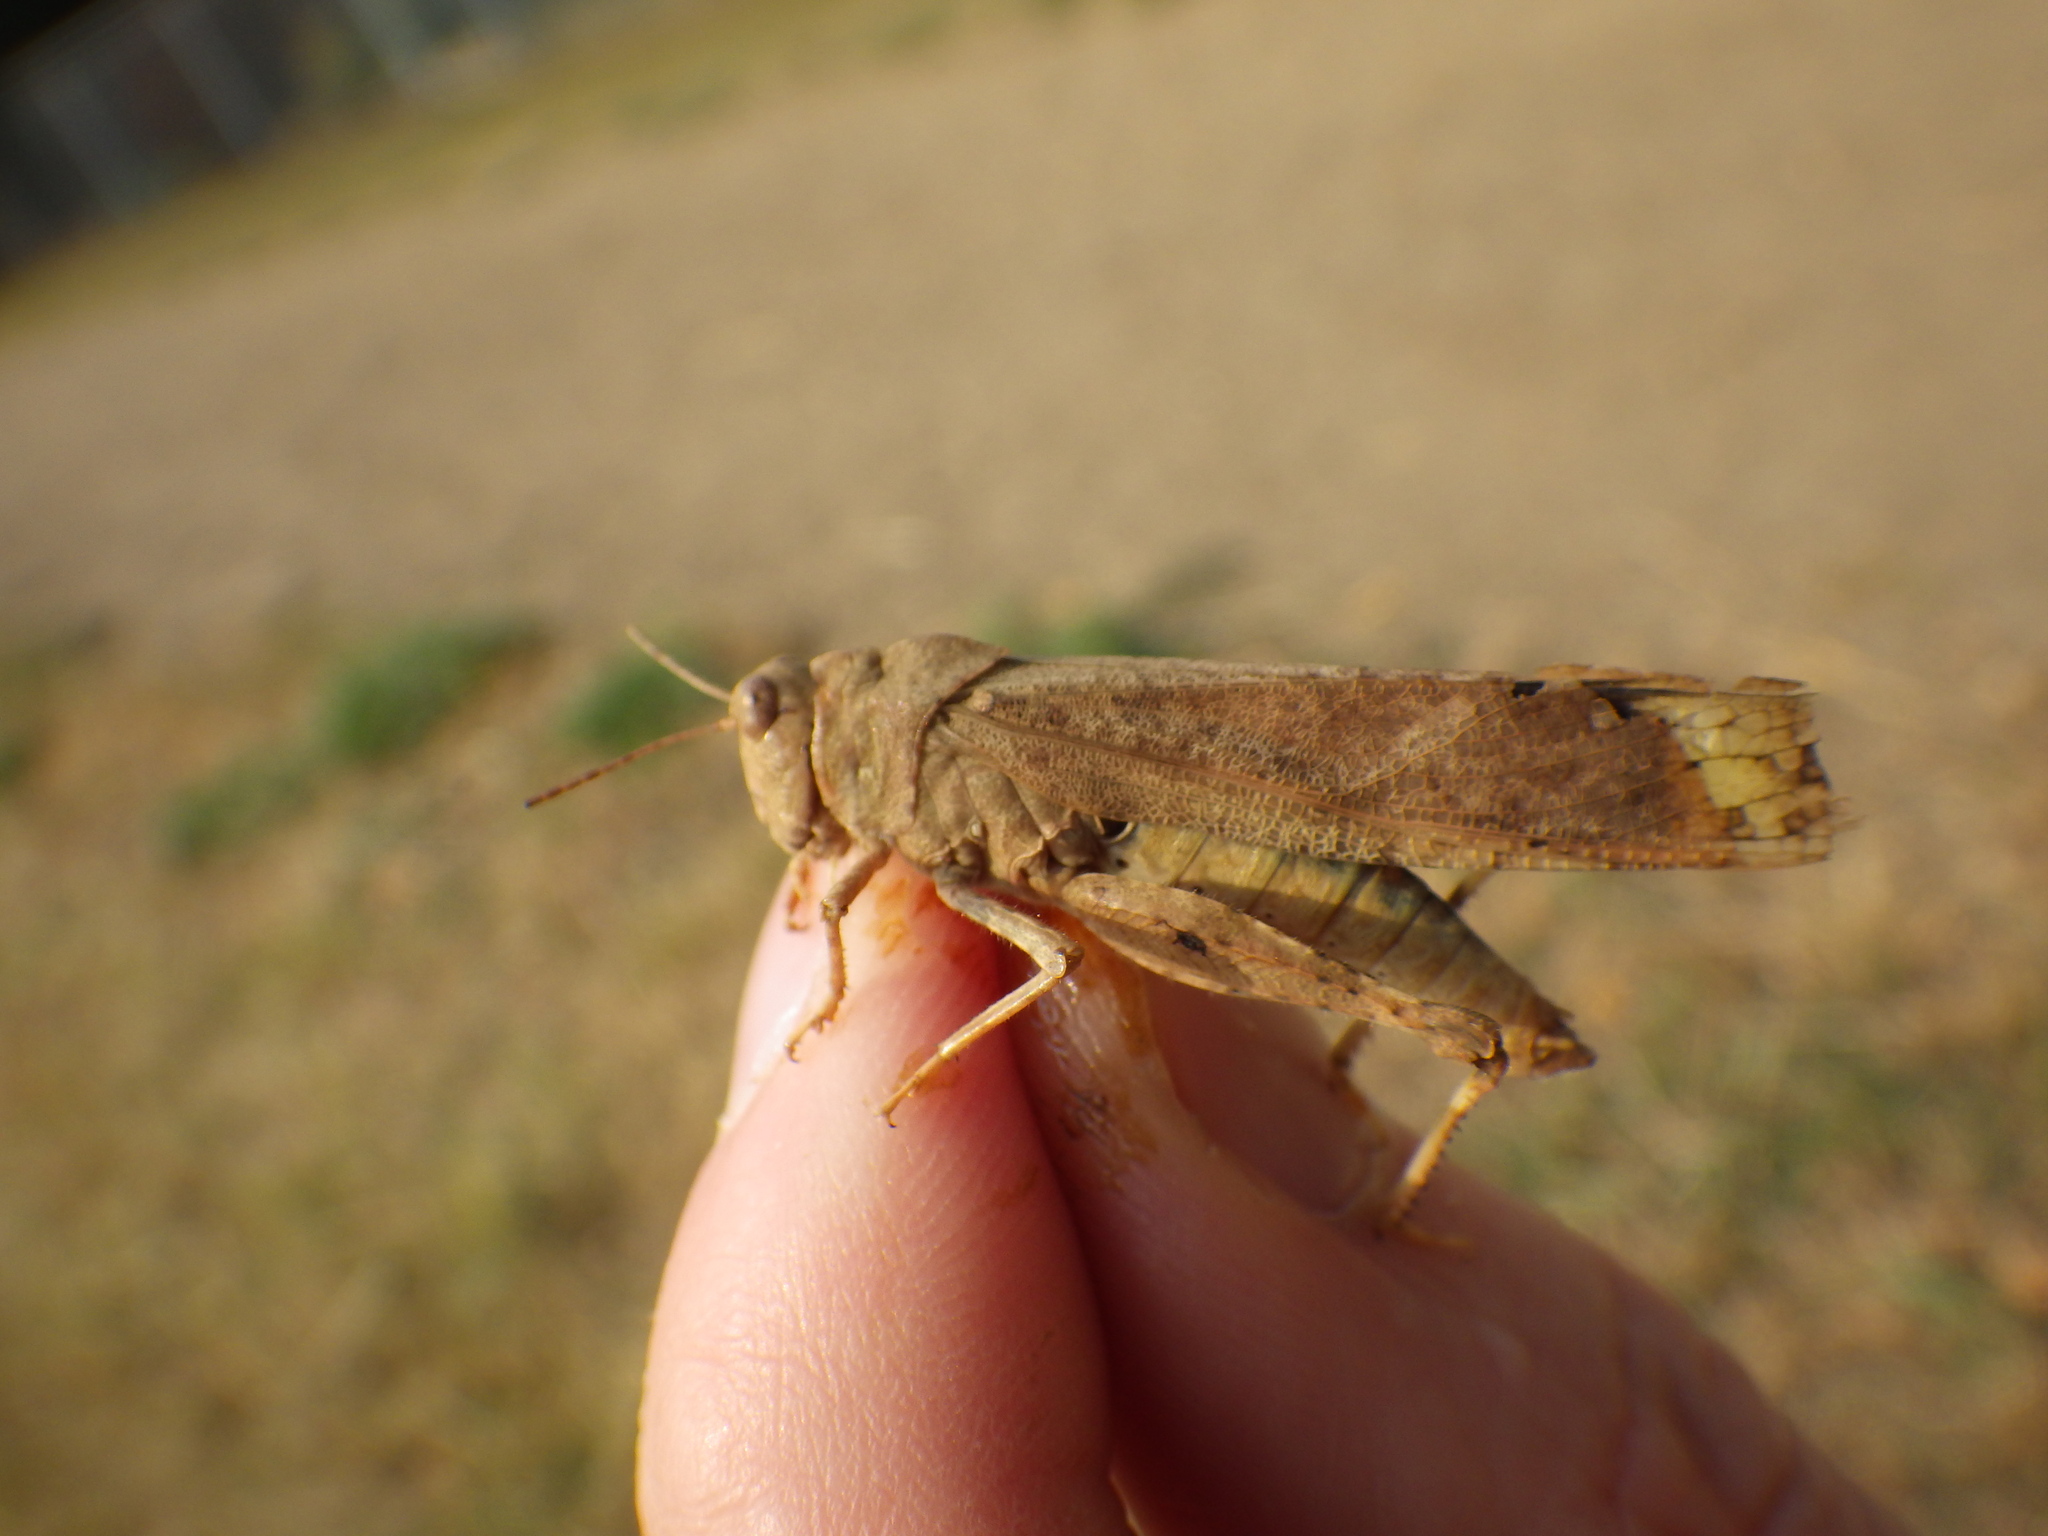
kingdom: Animalia
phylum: Arthropoda
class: Insecta
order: Orthoptera
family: Acrididae
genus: Dissosteira
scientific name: Dissosteira carolina
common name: Carolina grasshopper
